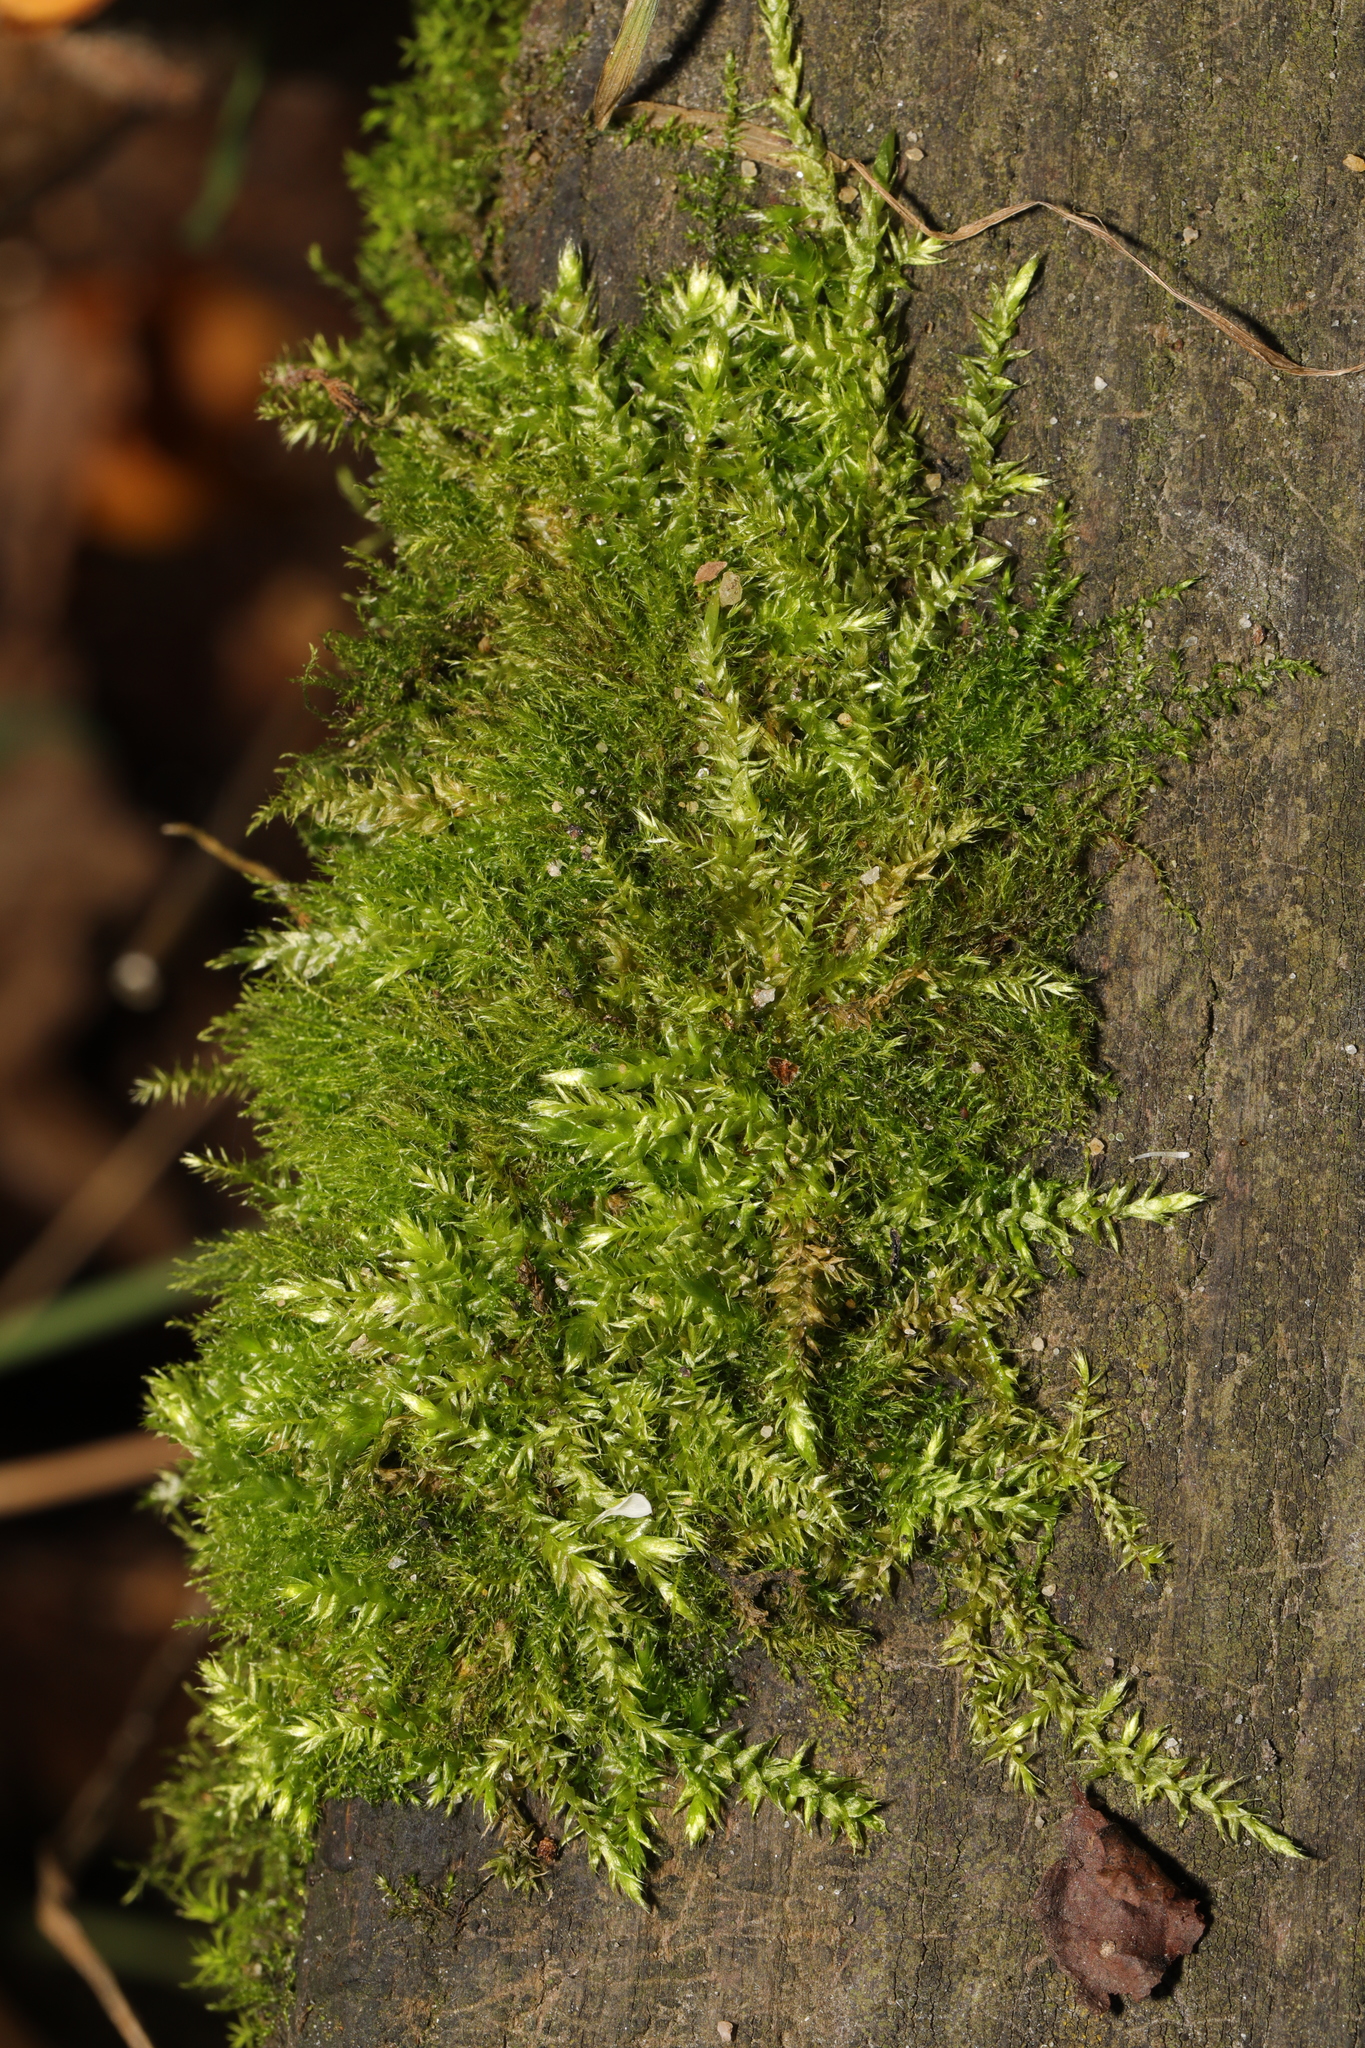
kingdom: Plantae
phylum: Bryophyta
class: Bryopsida
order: Hypnales
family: Brachytheciaceae
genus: Brachythecium
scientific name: Brachythecium rutabulum
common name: Rough-stalked feather-moss
